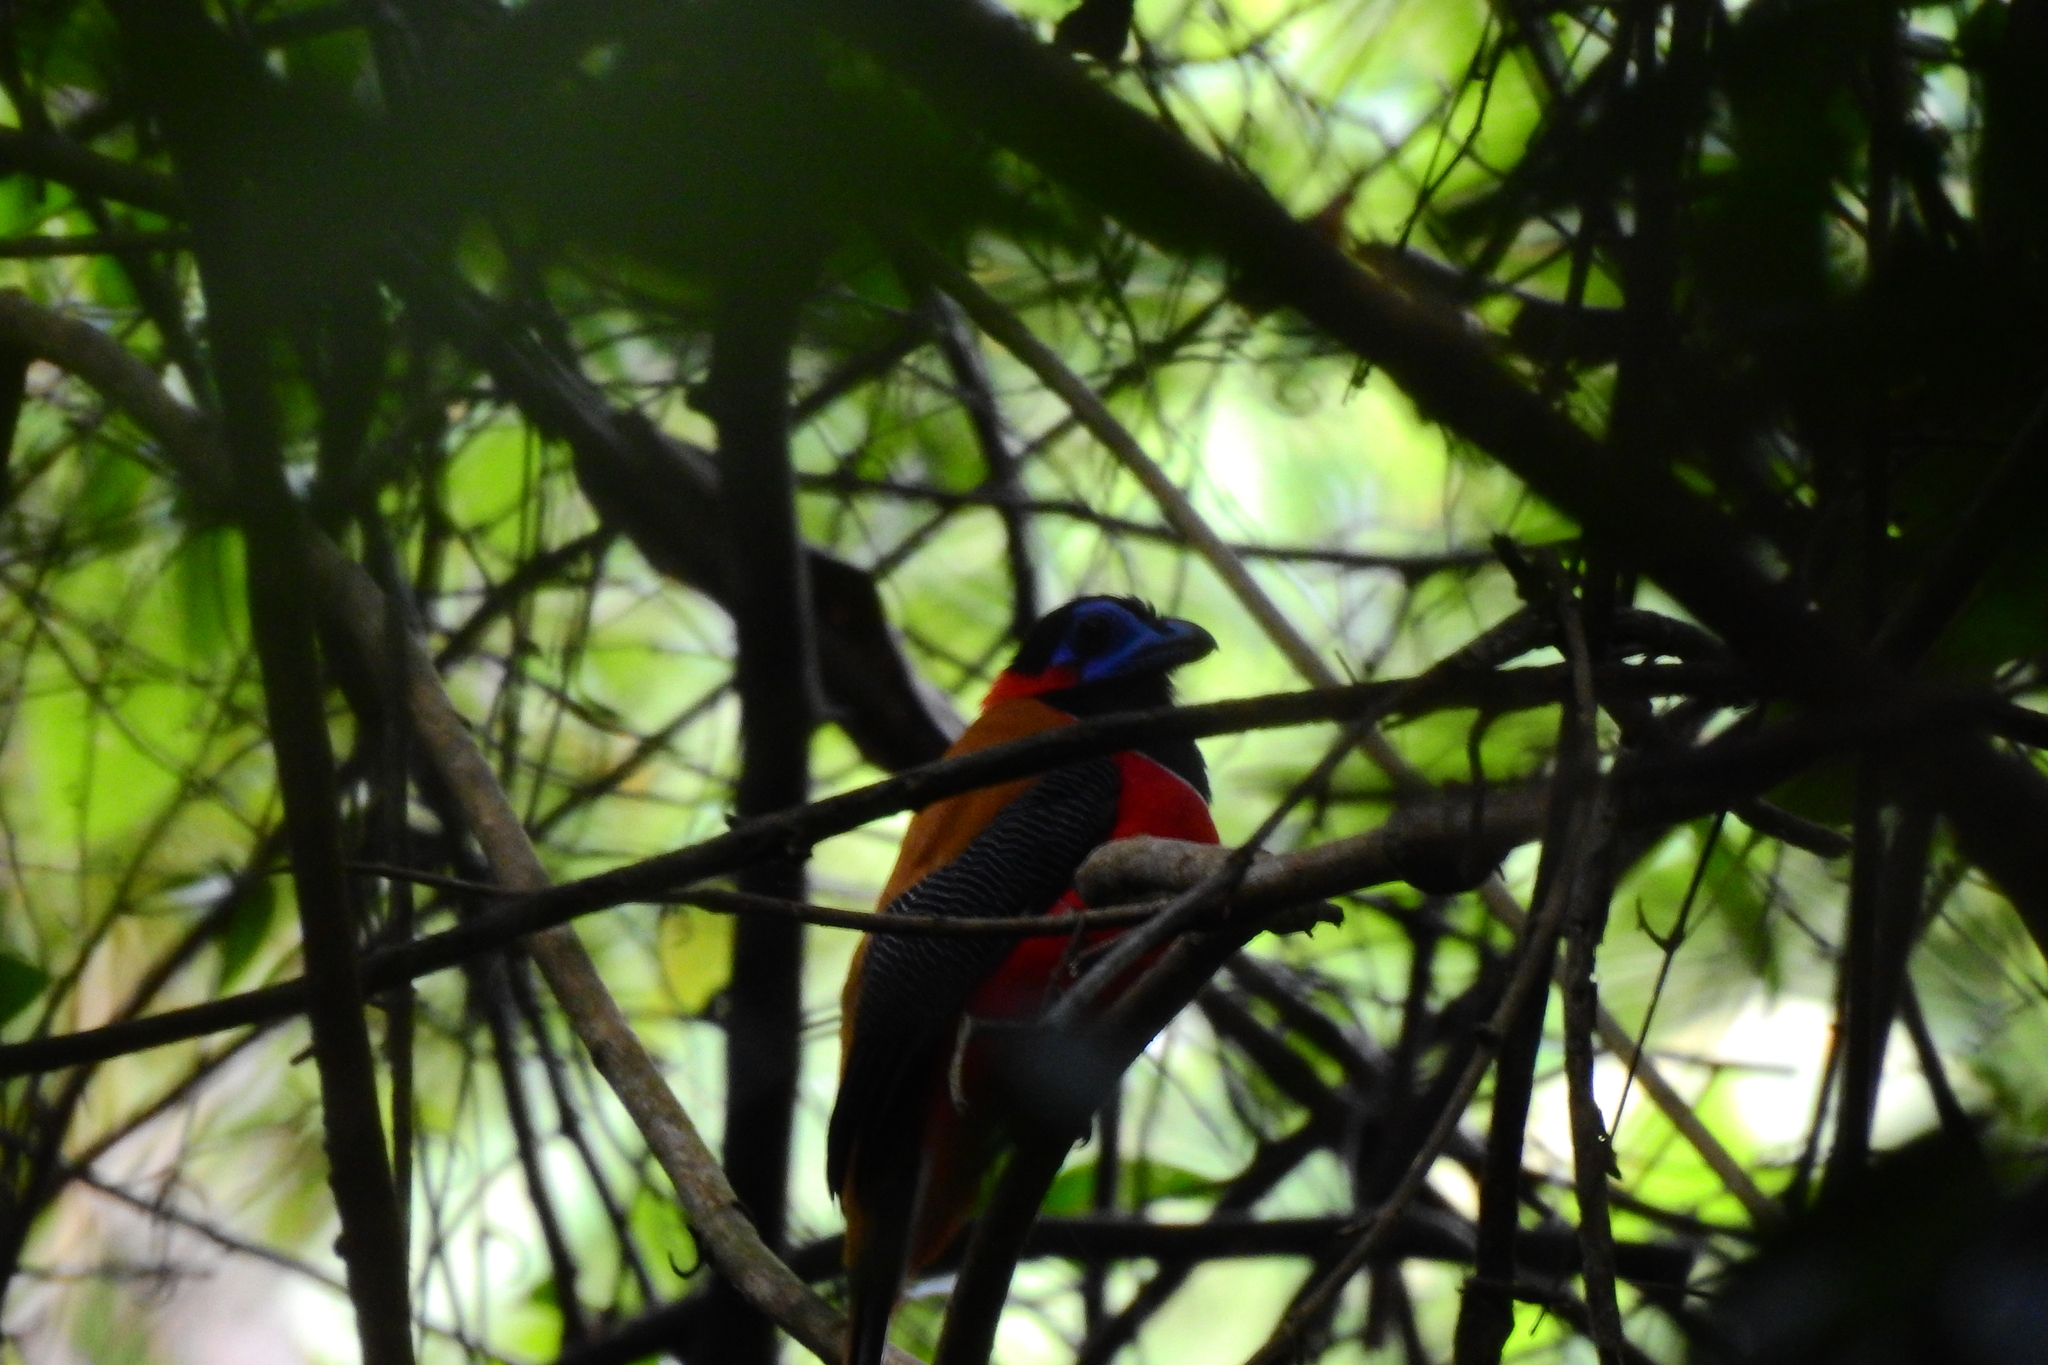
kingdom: Animalia
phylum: Chordata
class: Aves
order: Trogoniformes
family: Trogonidae
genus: Harpactes
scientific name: Harpactes kasumba
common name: Red-naped trogon
